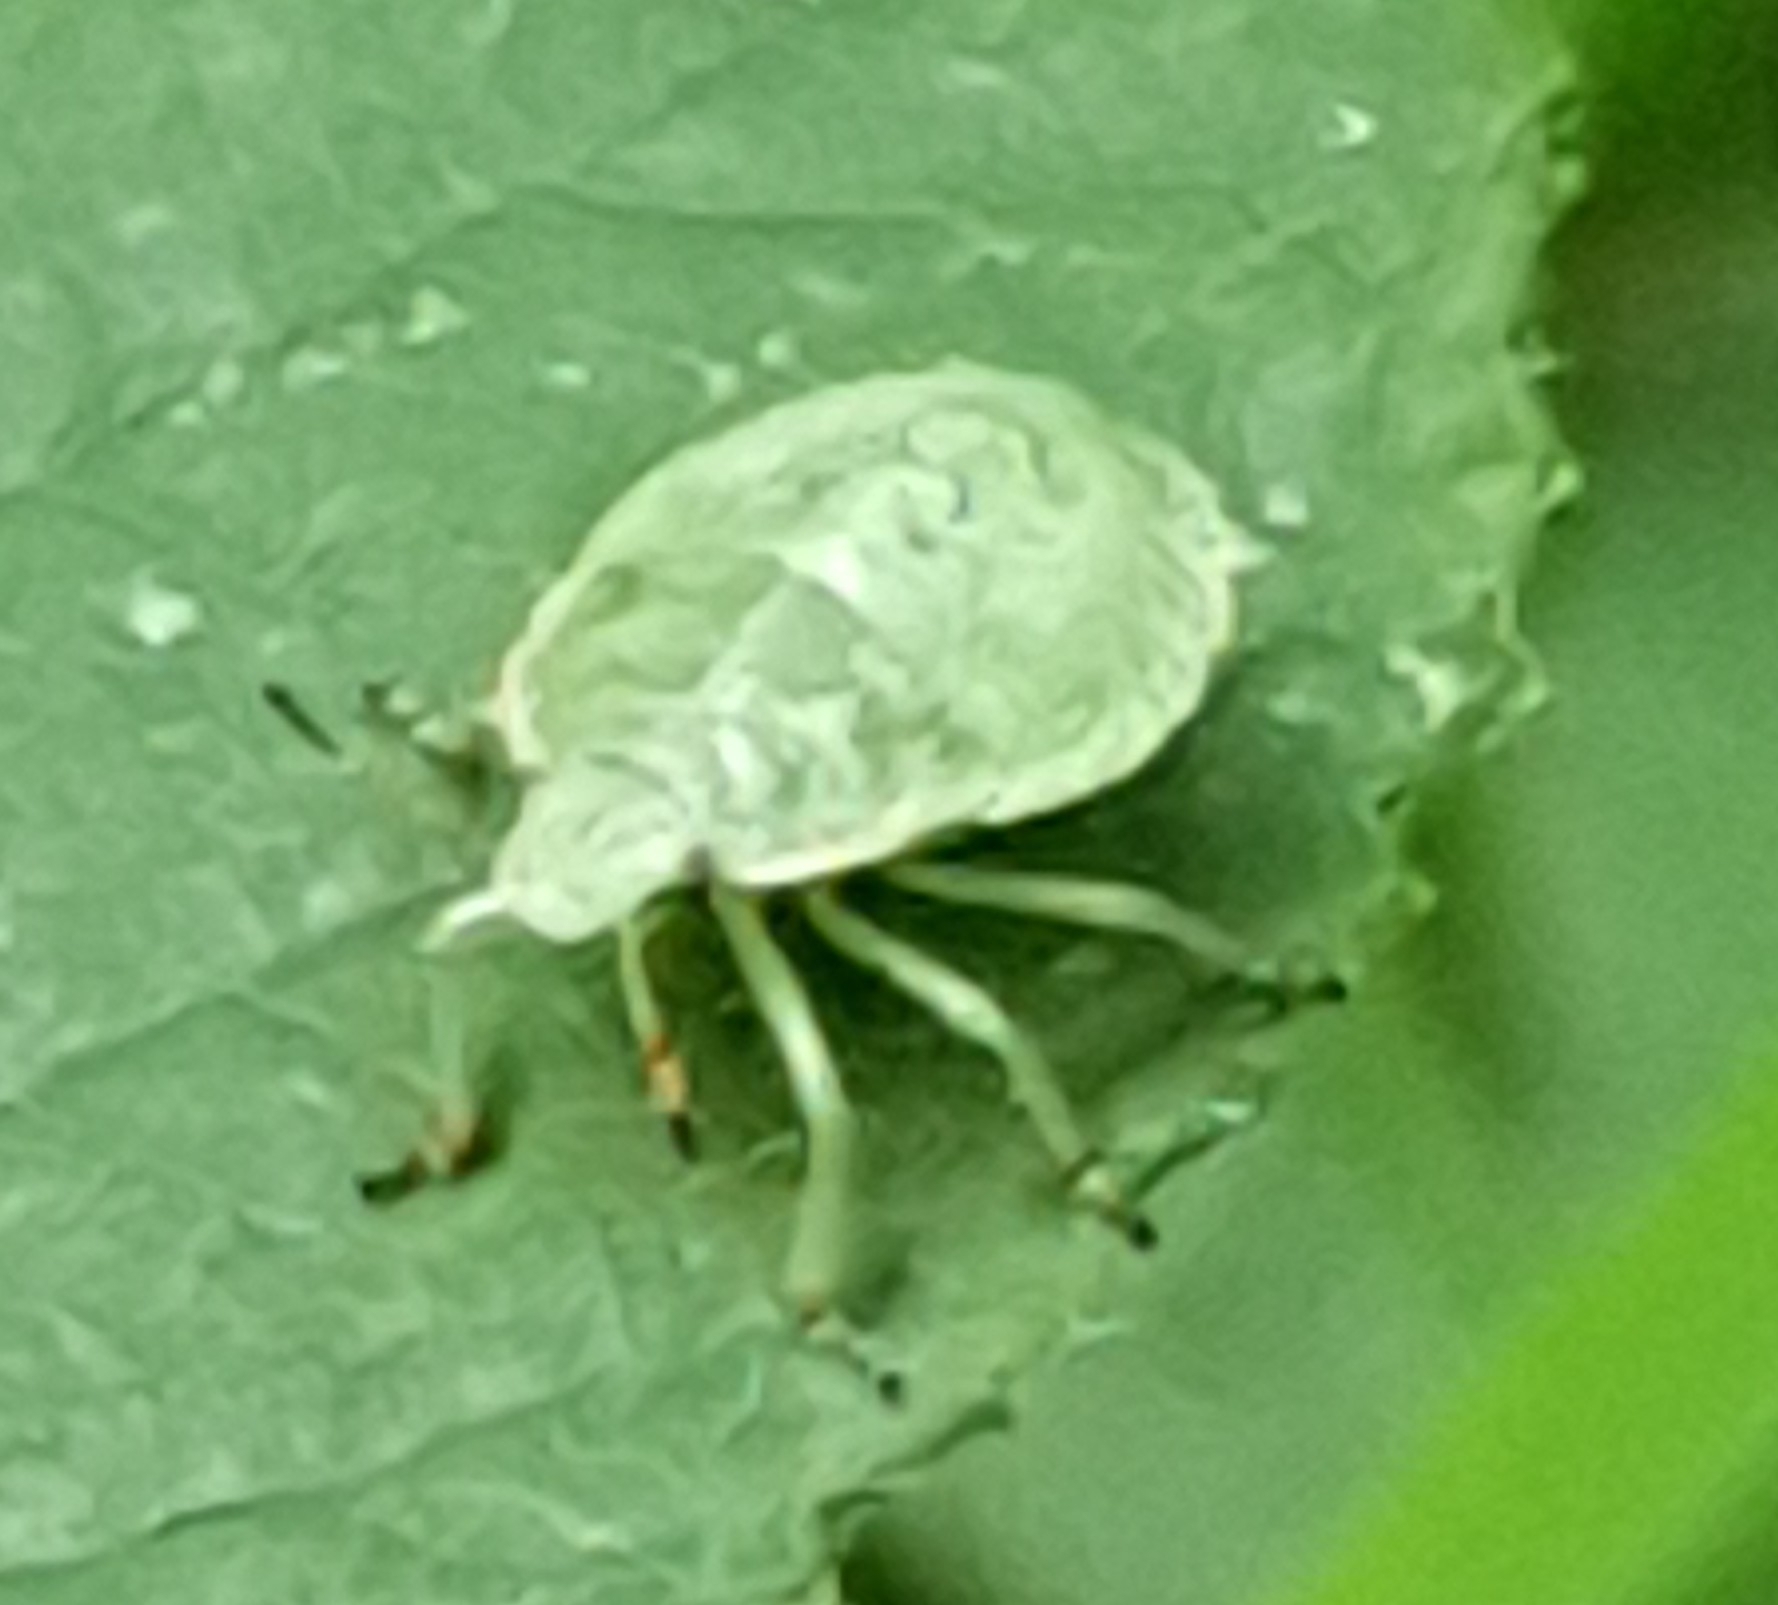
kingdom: Animalia
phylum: Arthropoda
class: Insecta
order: Hemiptera
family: Pentatomidae
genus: Palomena
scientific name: Palomena prasina
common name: Green shieldbug
